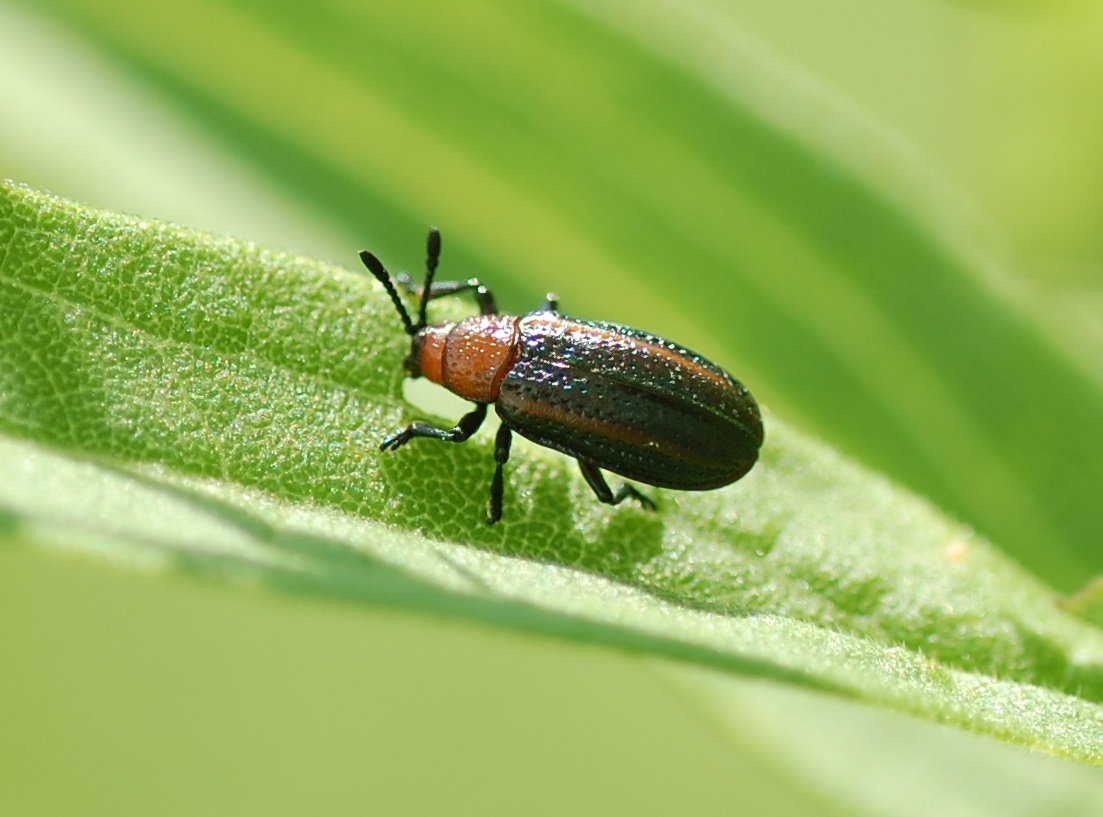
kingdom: Animalia
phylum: Arthropoda
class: Insecta
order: Coleoptera
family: Chrysomelidae
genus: Microrhopala
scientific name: Microrhopala vittata
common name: Goldenrod leaf miner beetle
